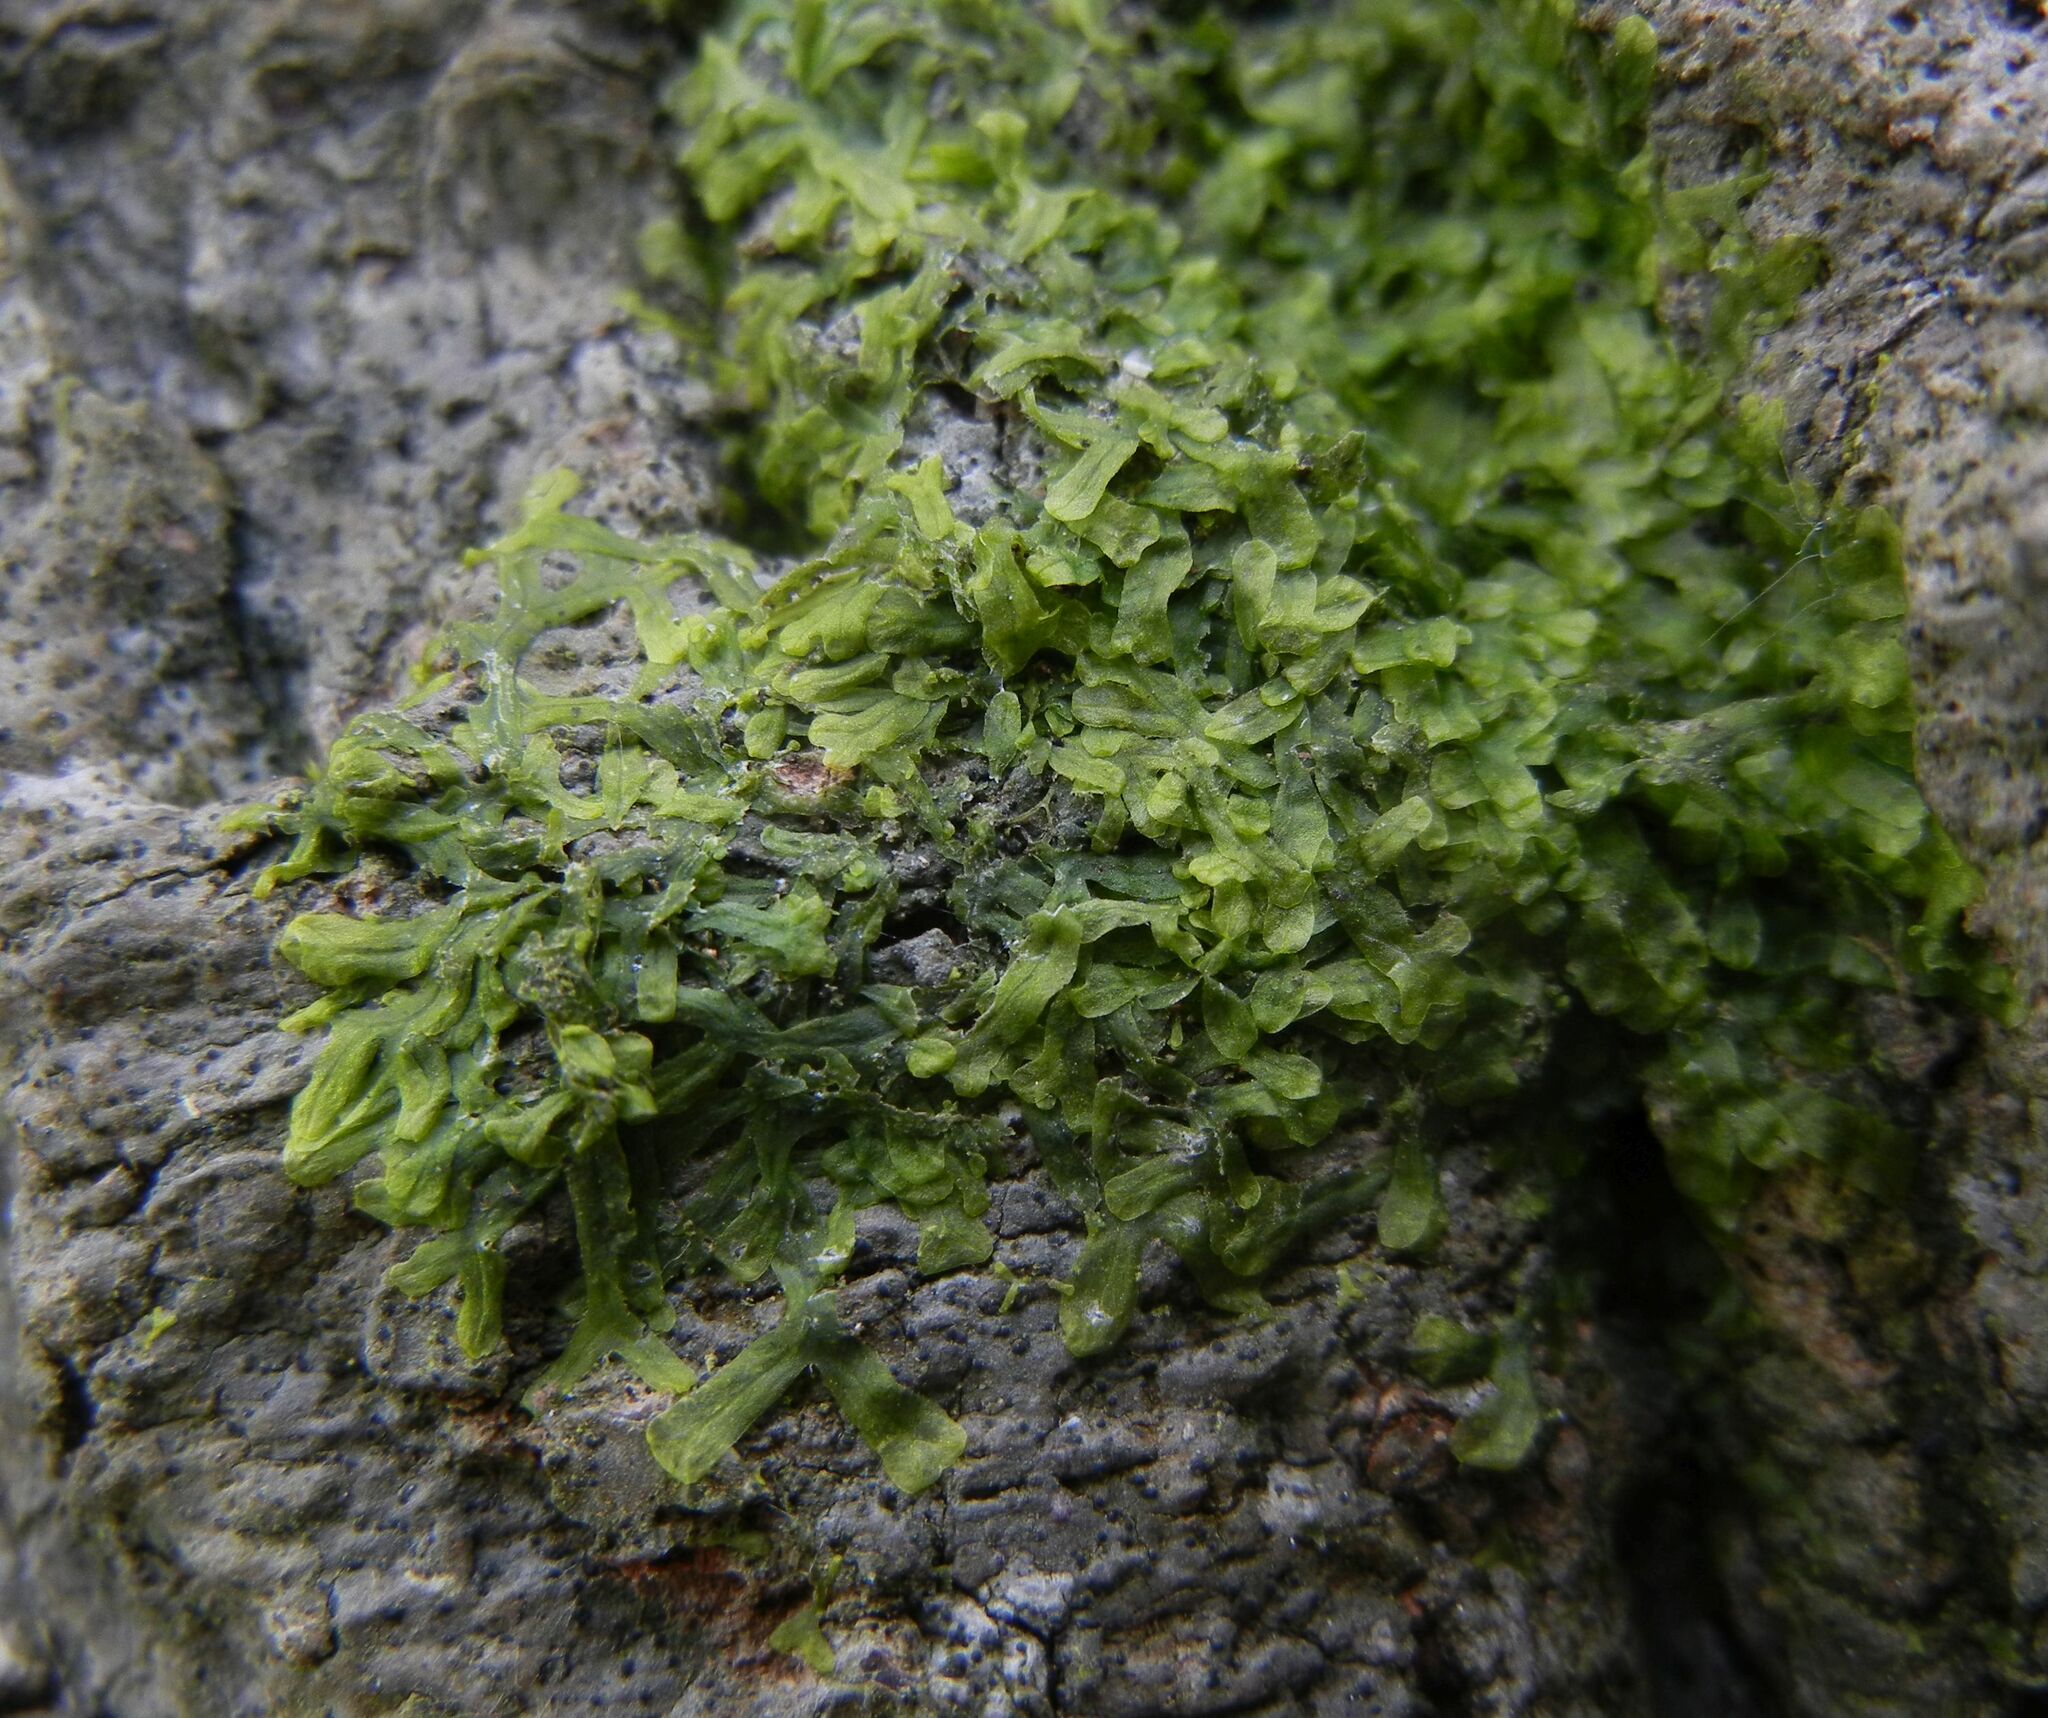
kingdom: Plantae
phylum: Marchantiophyta
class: Jungermanniopsida
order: Metzgeriales
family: Metzgeriaceae
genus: Metzgeria
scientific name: Metzgeria furcata
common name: Forked veilwort
